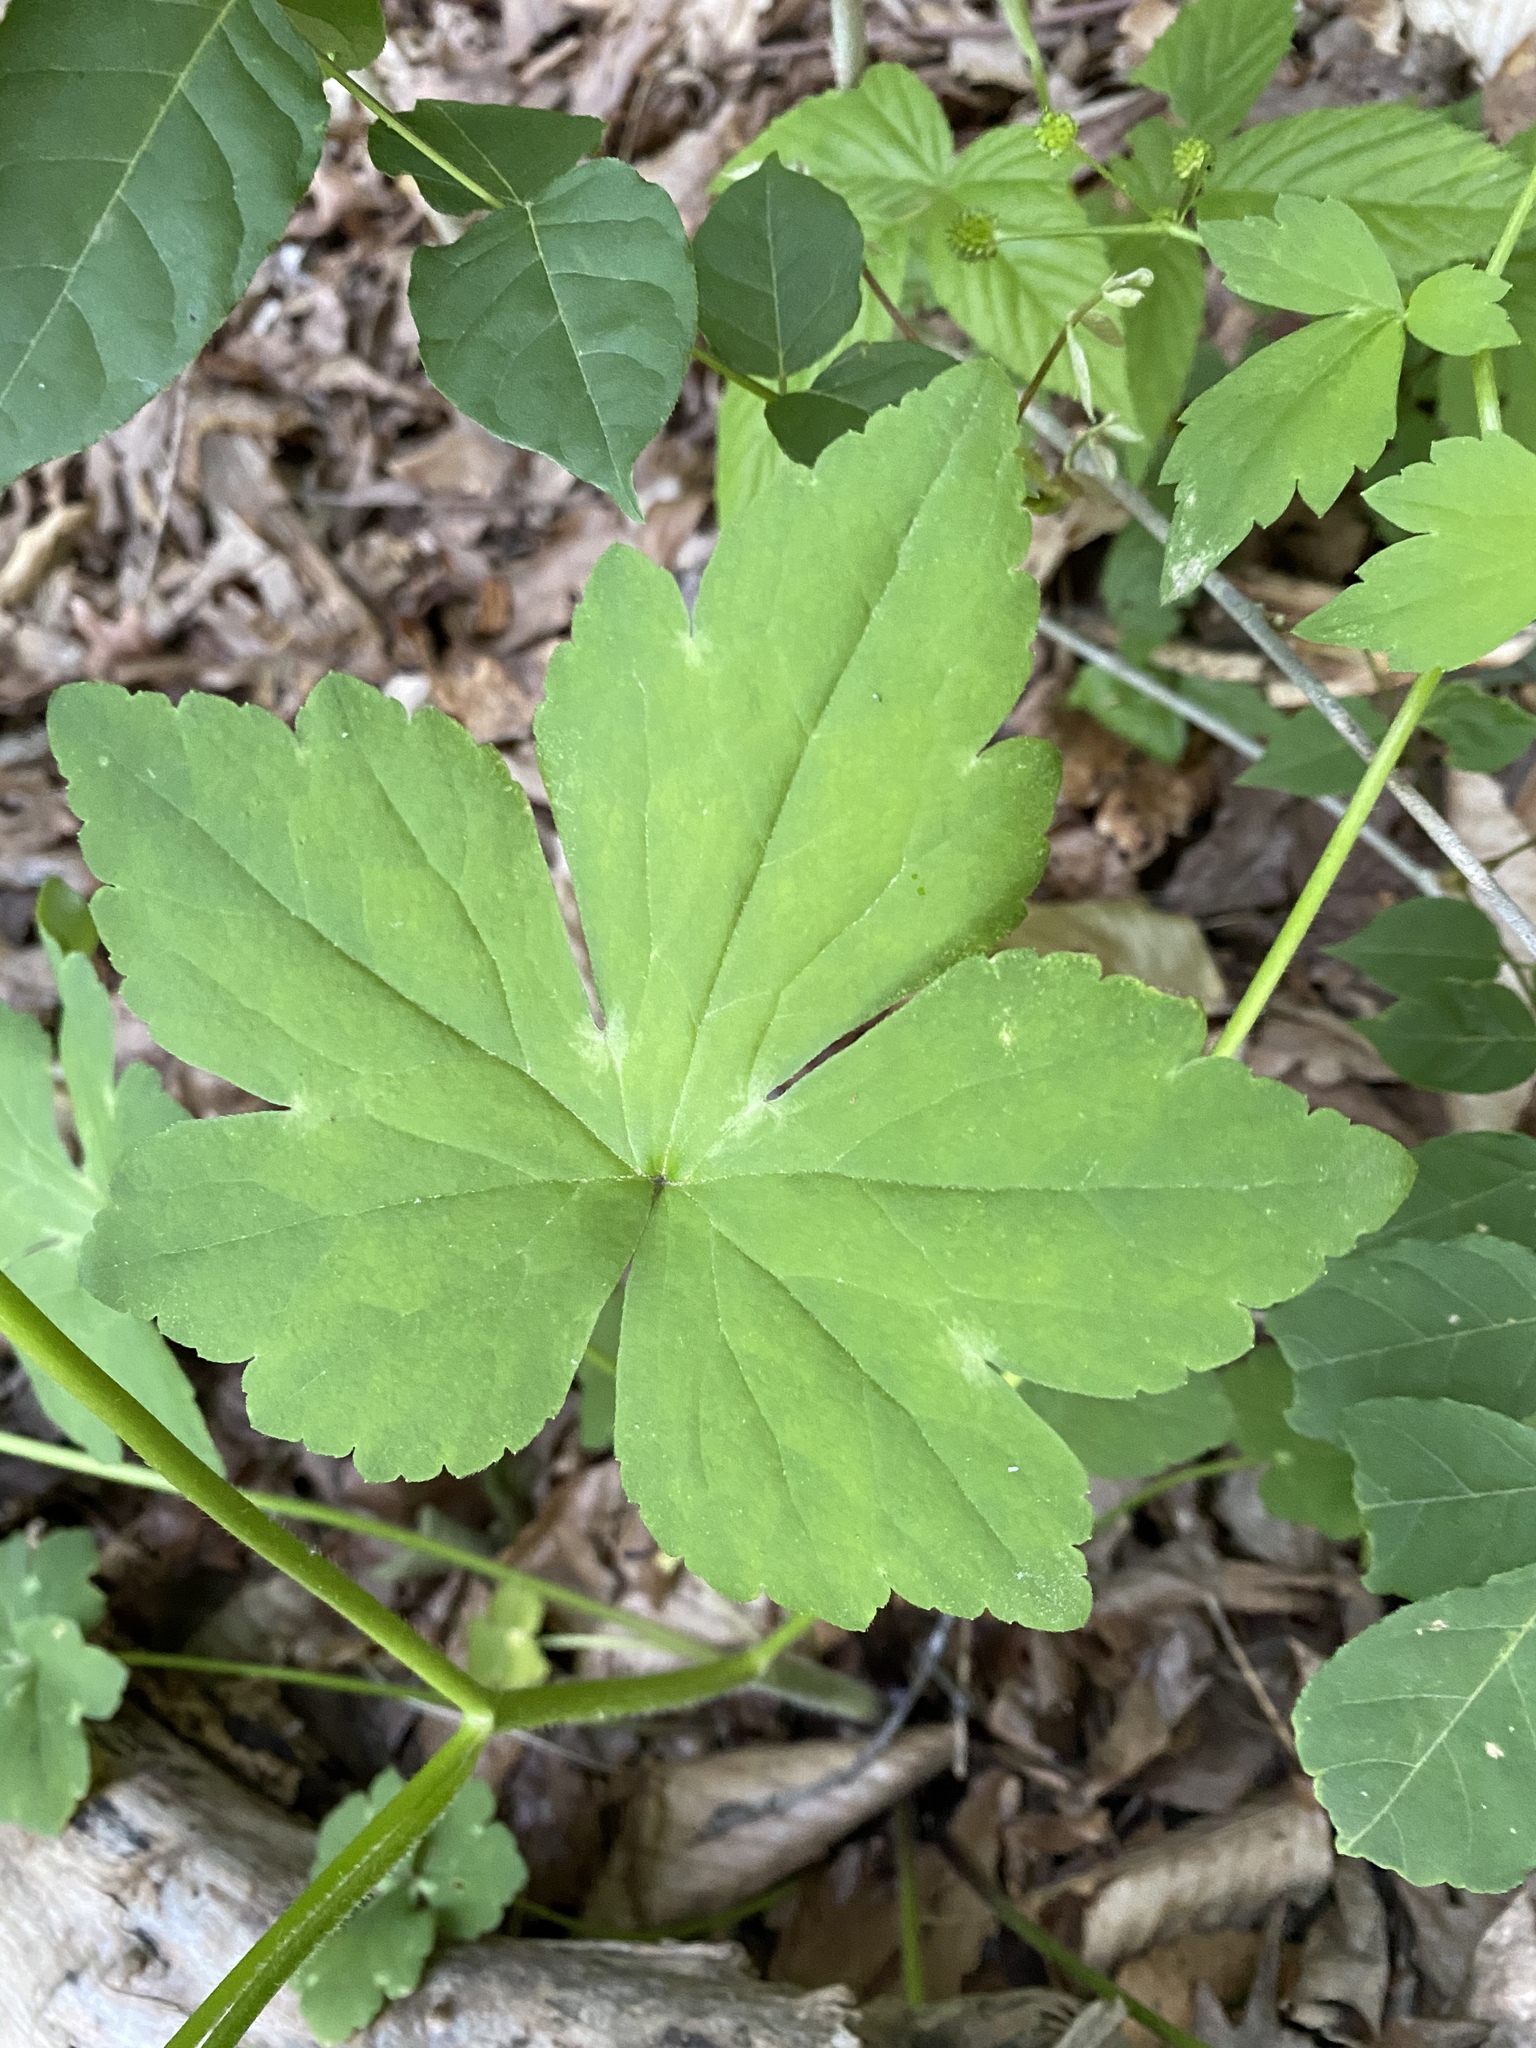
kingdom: Plantae
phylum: Tracheophyta
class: Magnoliopsida
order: Ranunculales
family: Ranunculaceae
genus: Ranunculus
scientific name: Ranunculus recurvatus
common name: Blisterwort
